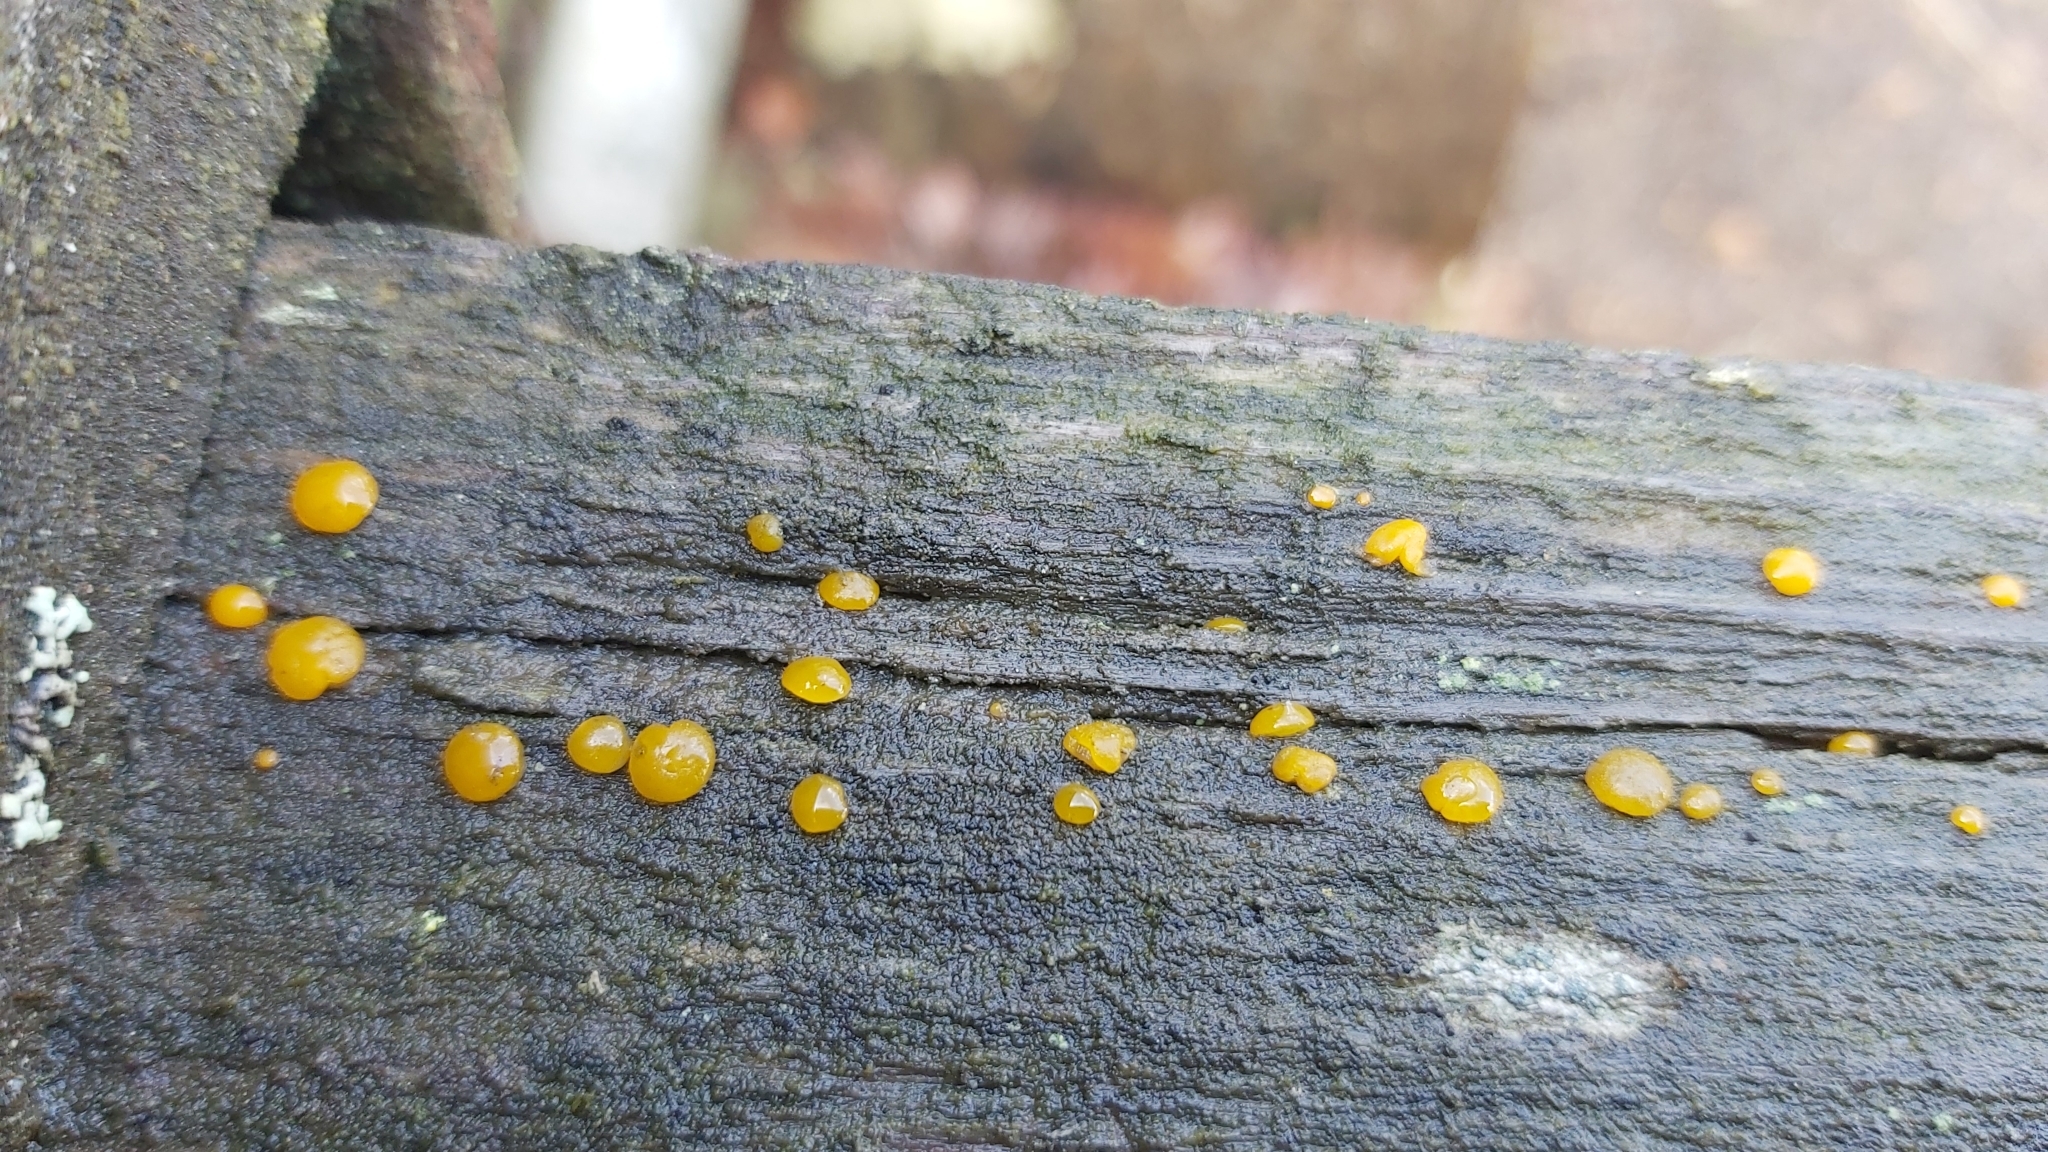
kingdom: Fungi
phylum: Basidiomycota
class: Dacrymycetes
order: Dacrymycetales
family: Dacrymycetaceae
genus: Dacrymyces
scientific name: Dacrymyces stillatus
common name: Common jelly spot
